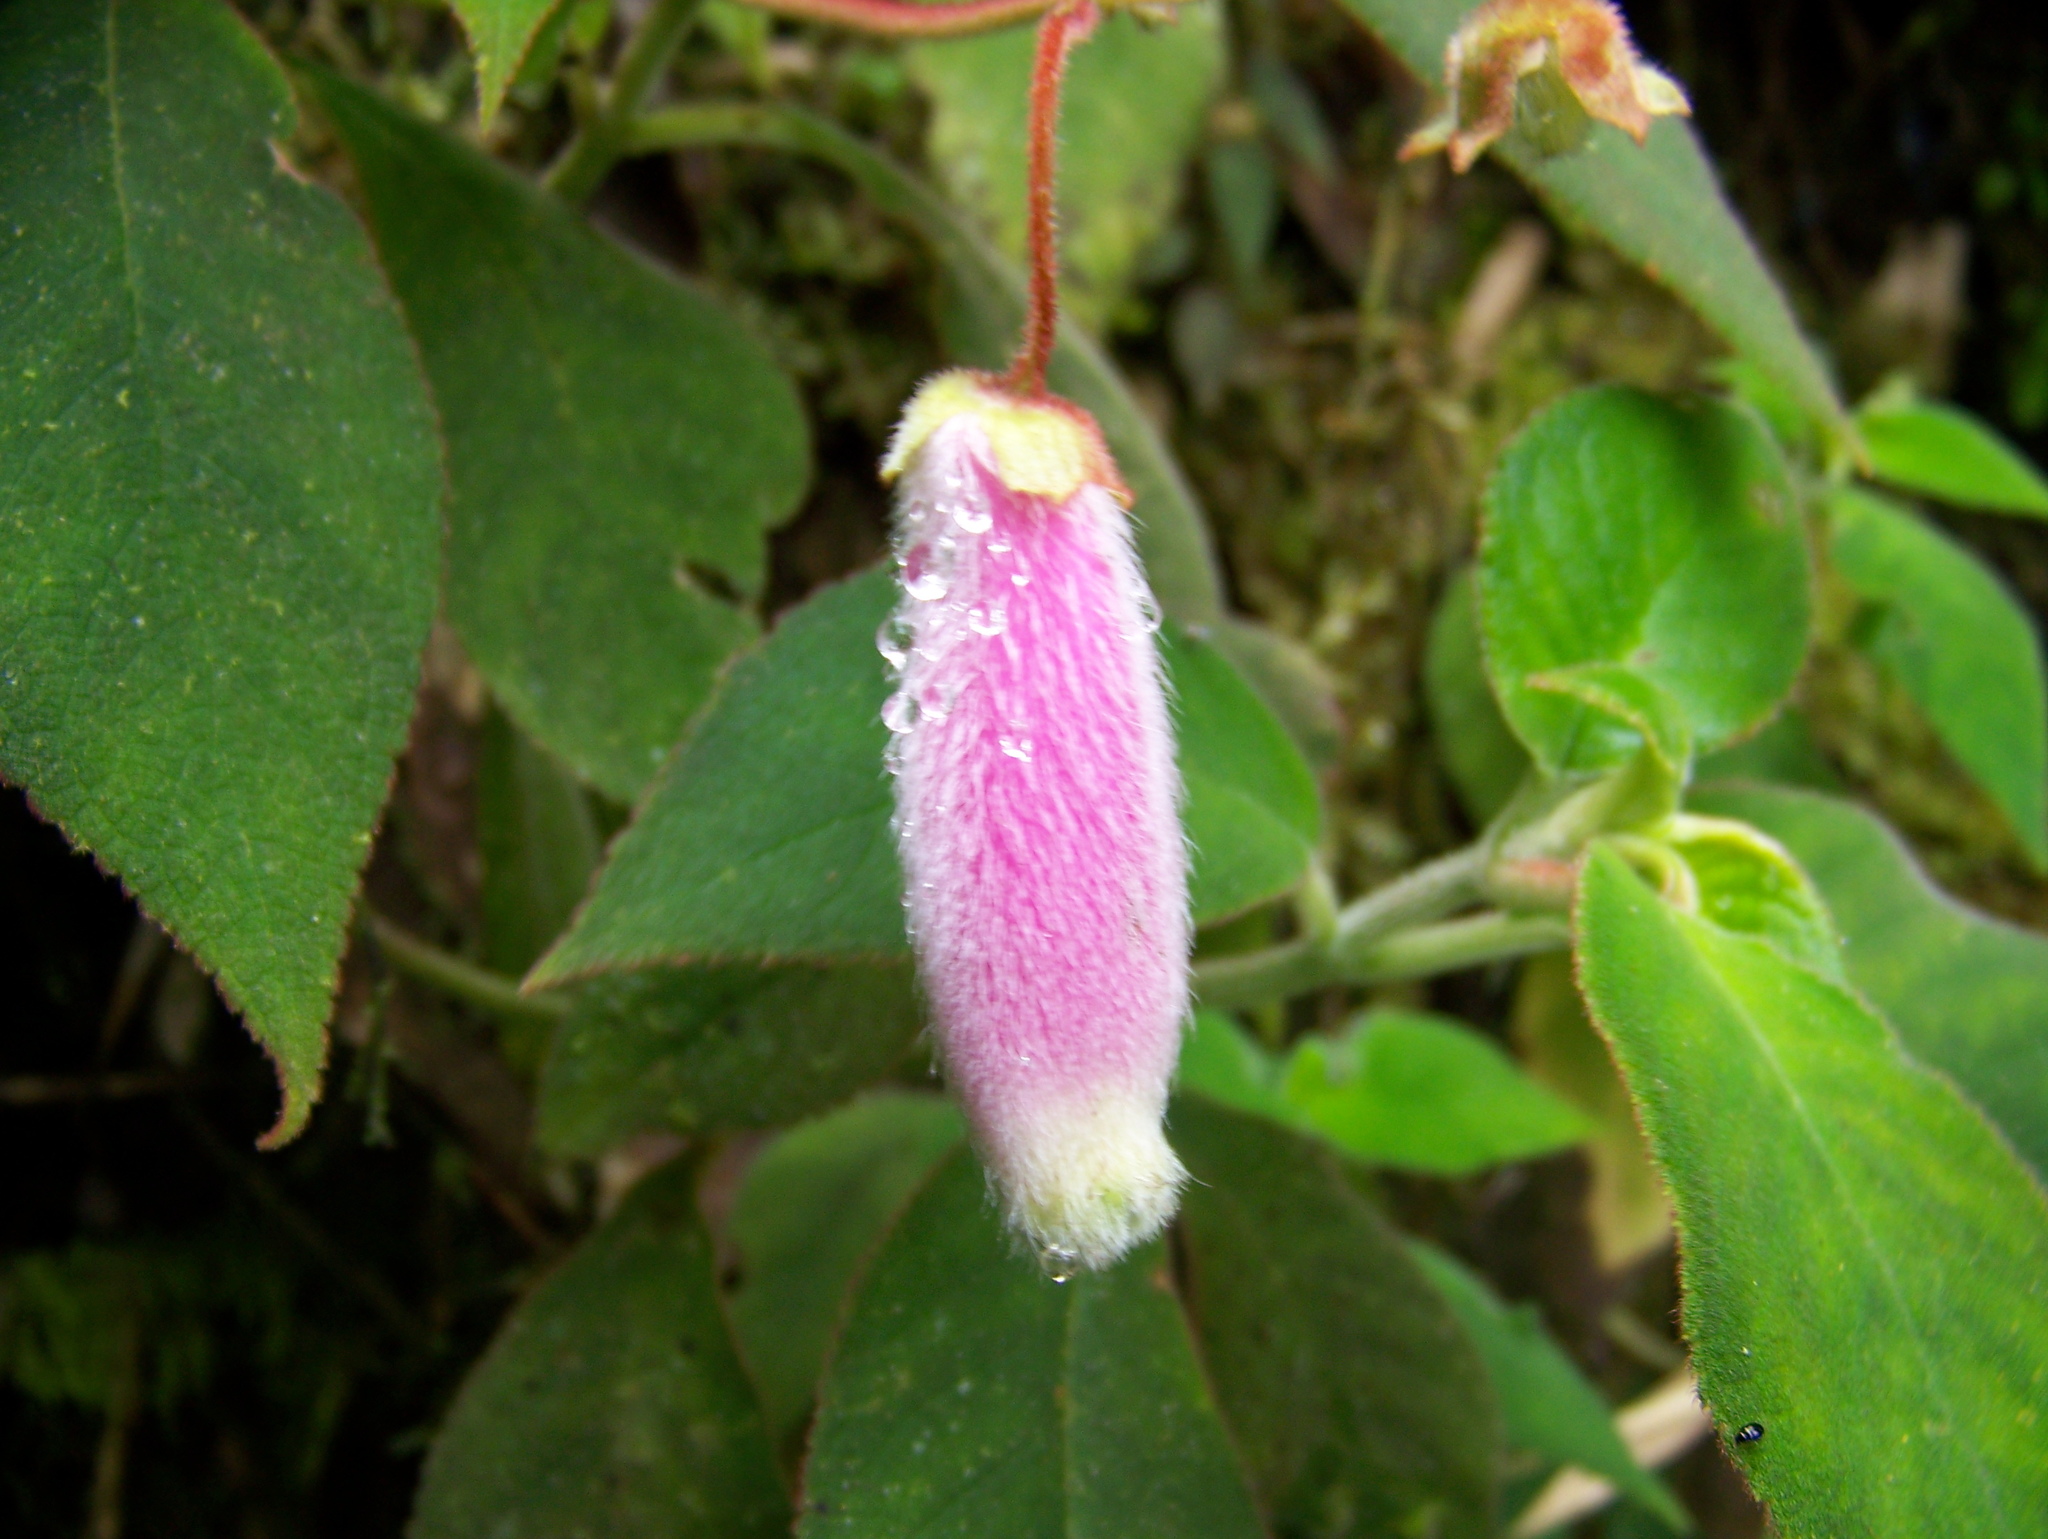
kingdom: Plantae
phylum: Tracheophyta
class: Magnoliopsida
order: Lamiales
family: Gesneriaceae
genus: Kohleria
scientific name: Kohleria affinis
